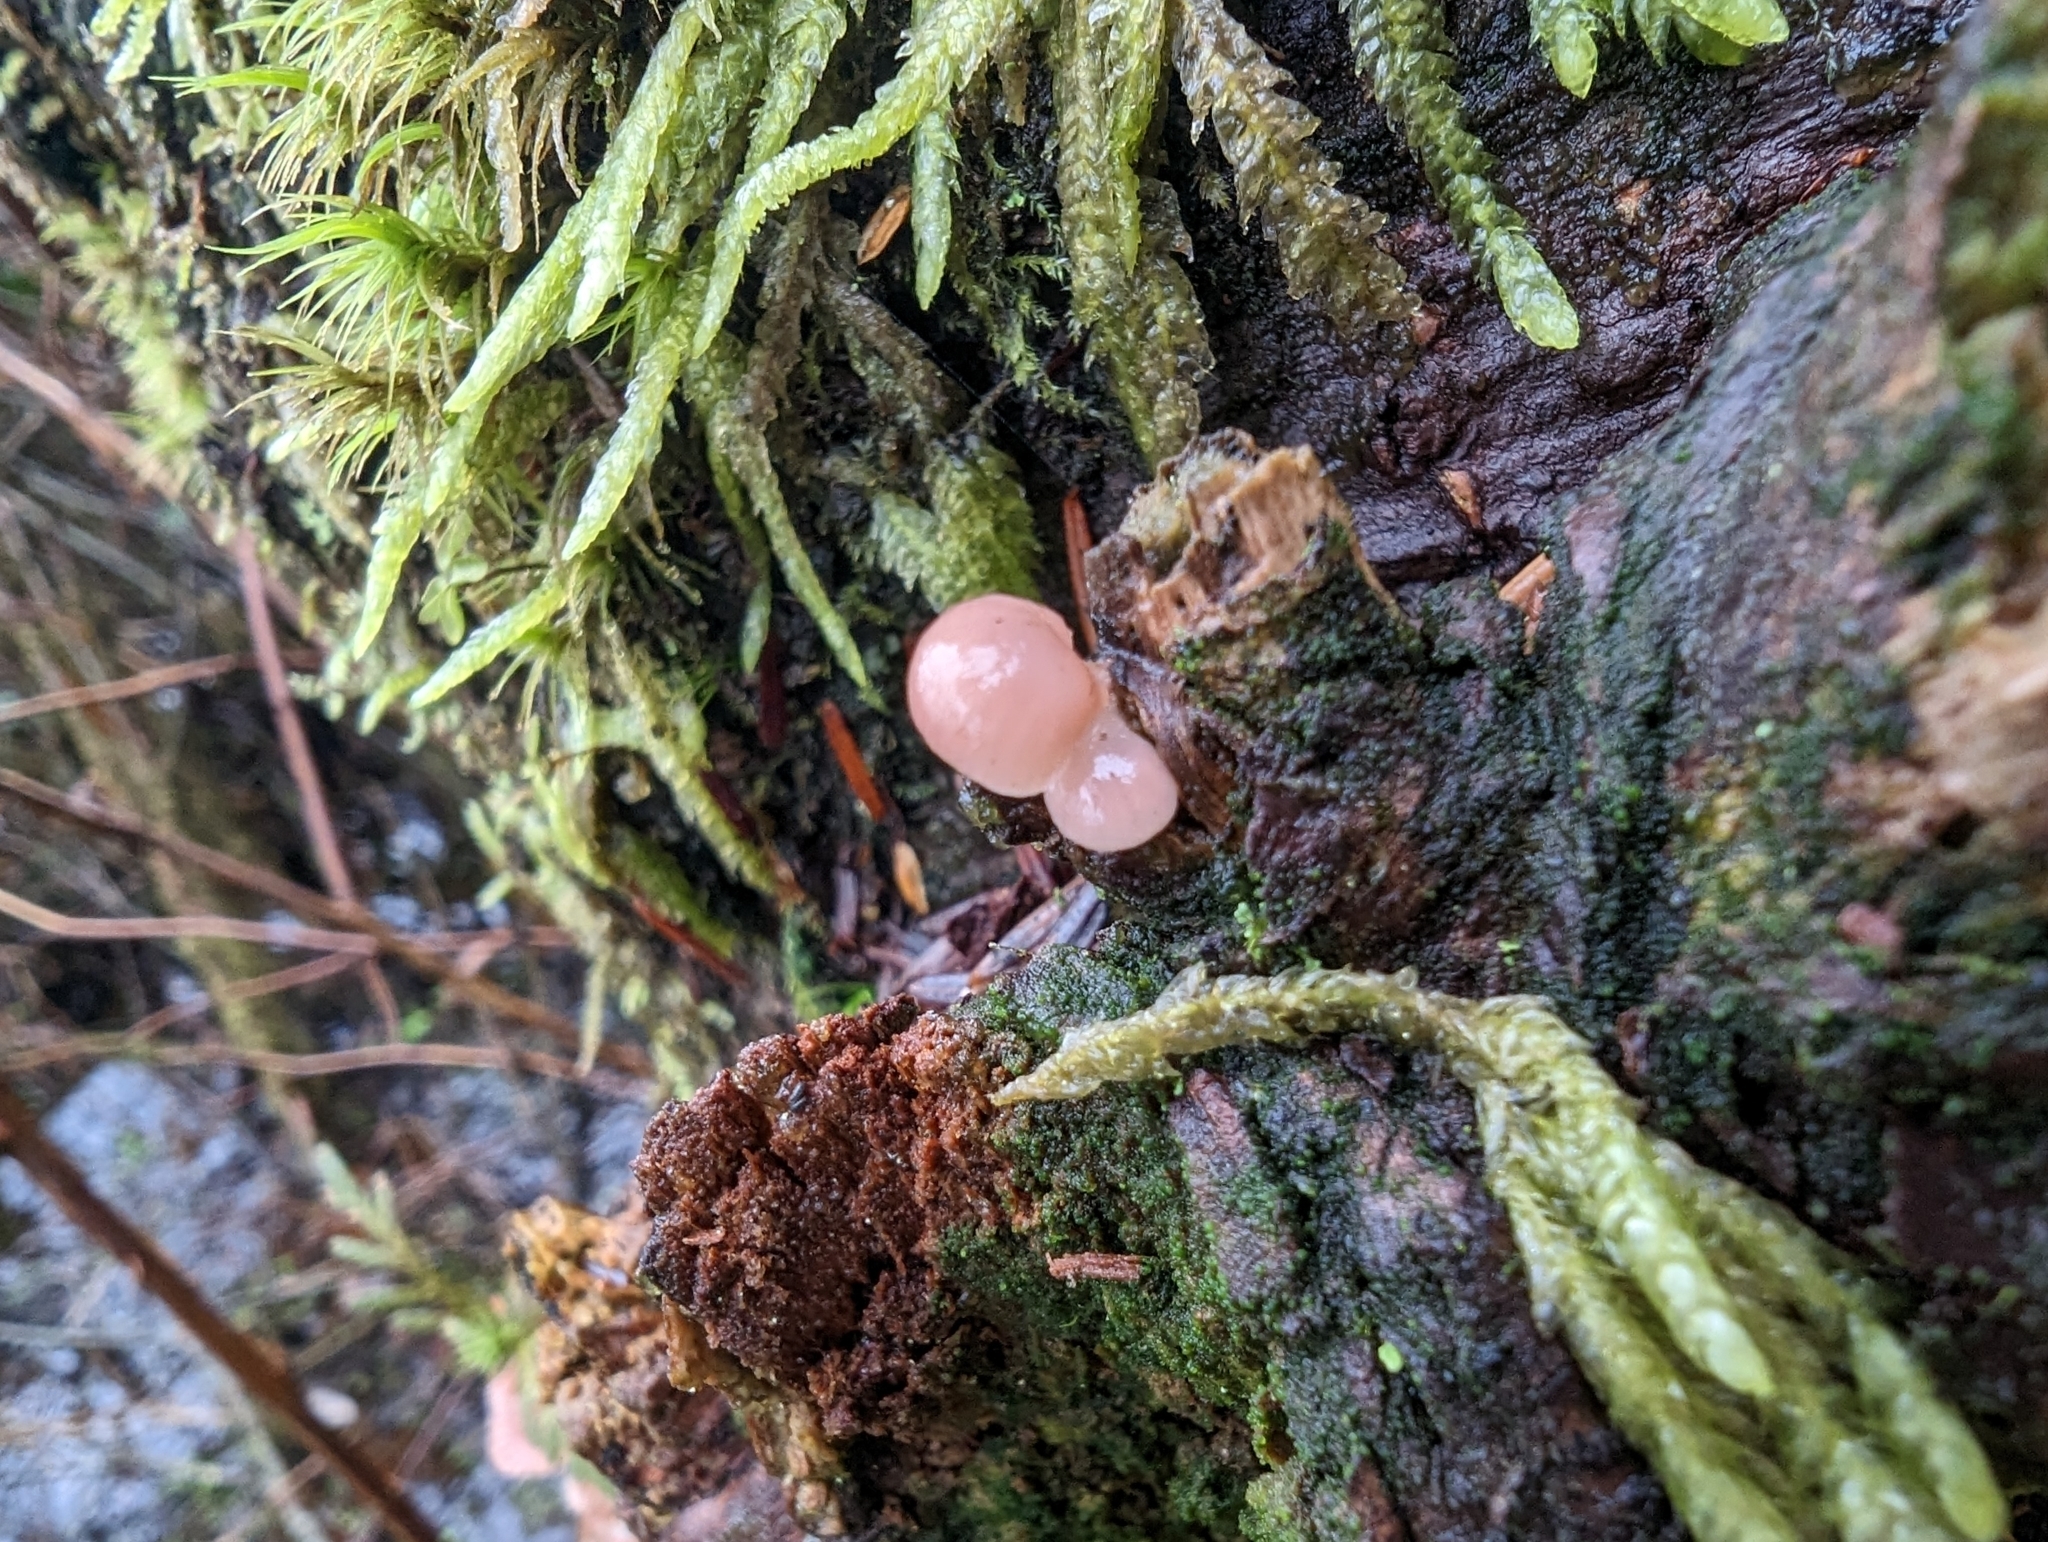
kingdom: Fungi
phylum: Basidiomycota
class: Agaricomycetes
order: Agaricales
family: Mycenaceae
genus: Panellus
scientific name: Panellus longinquus
